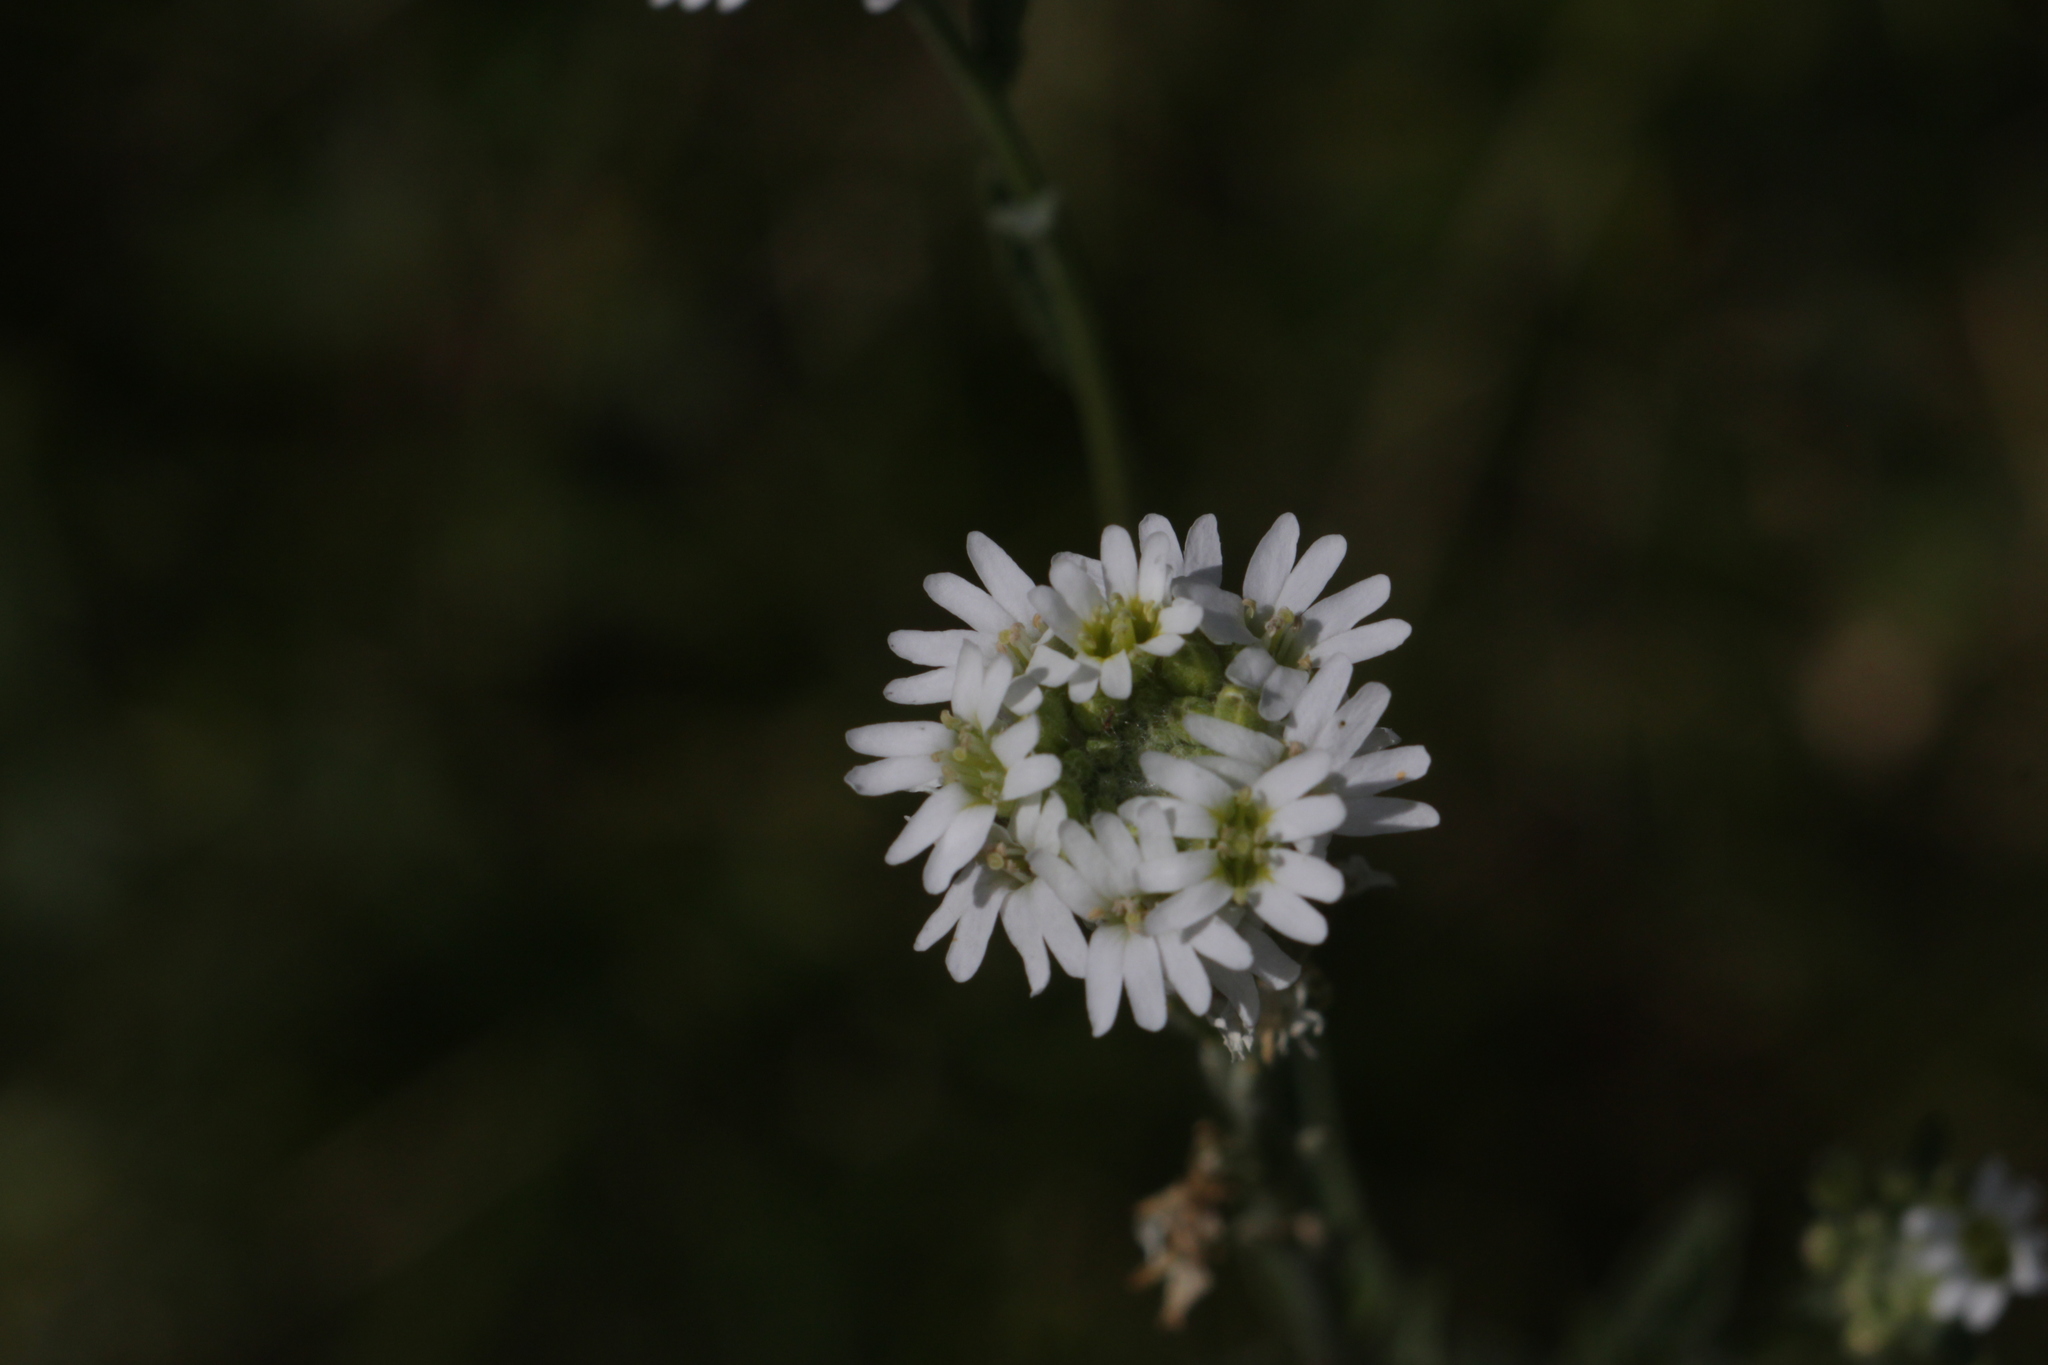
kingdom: Plantae
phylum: Tracheophyta
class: Magnoliopsida
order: Brassicales
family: Brassicaceae
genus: Berteroa
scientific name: Berteroa incana
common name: Hoary alison
